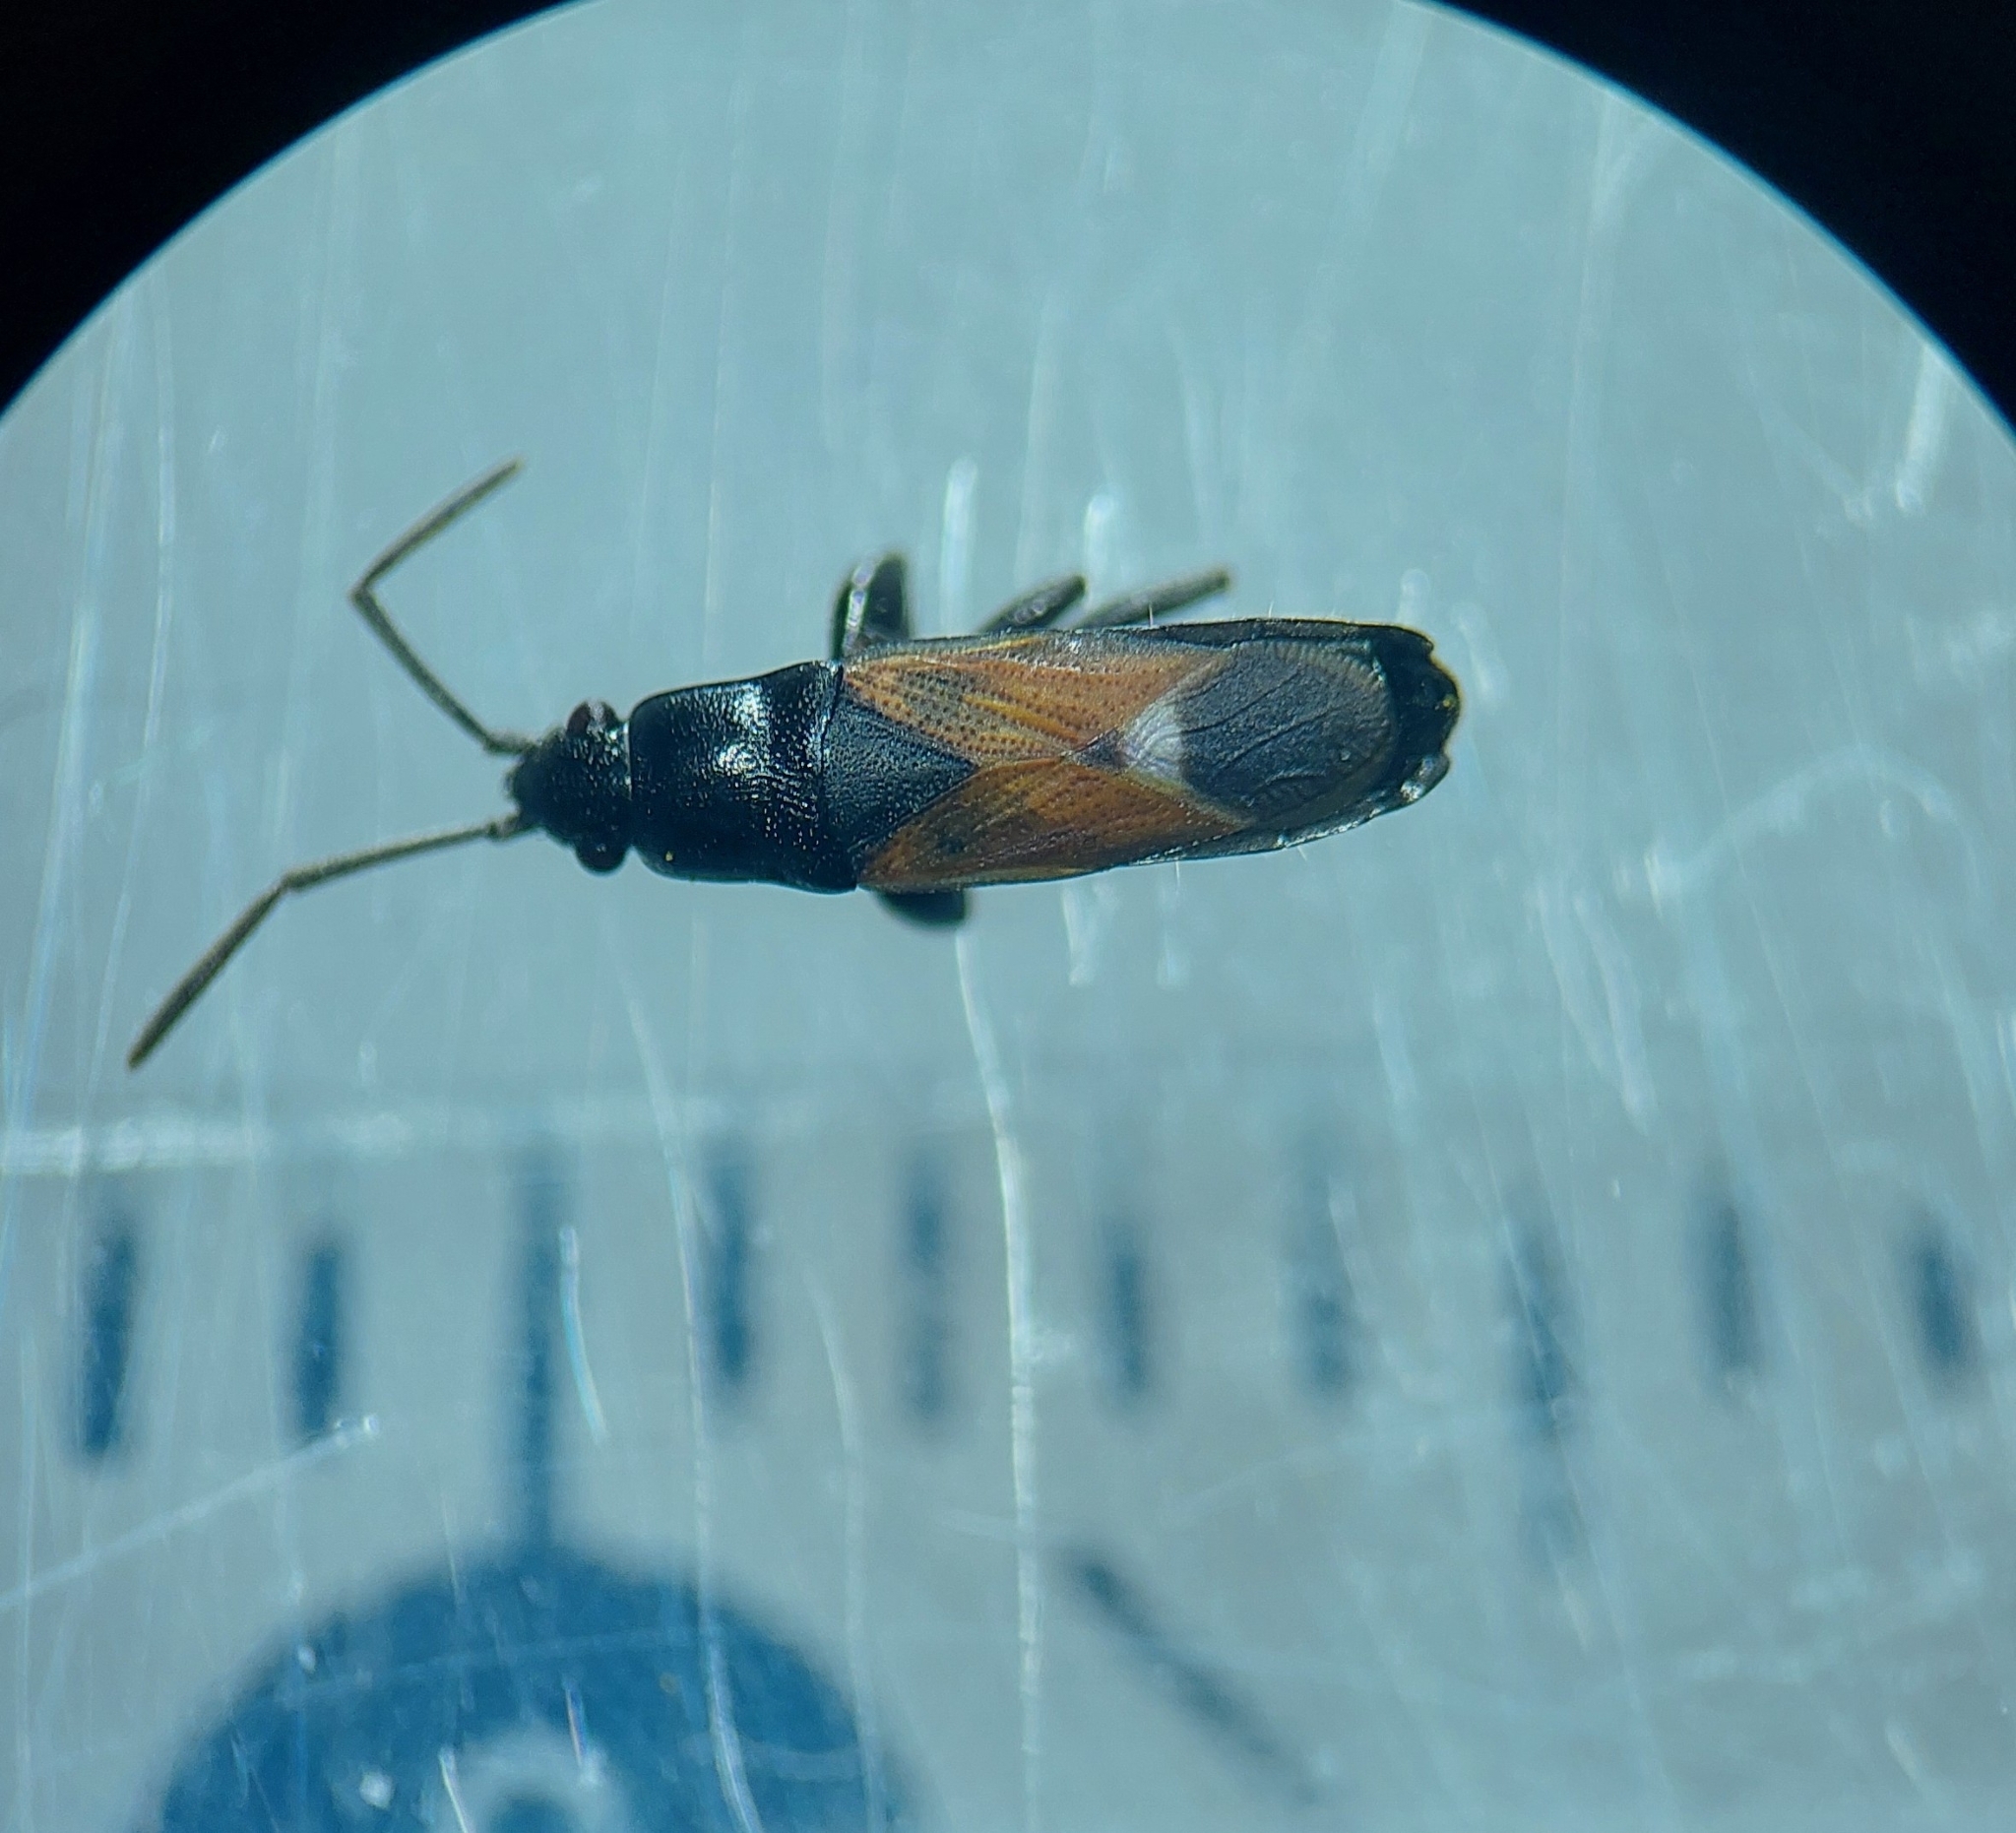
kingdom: Animalia
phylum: Arthropoda
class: Insecta
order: Hemiptera
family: Rhyparochromidae
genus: Pterotmetus
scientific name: Pterotmetus staphyliniformis
